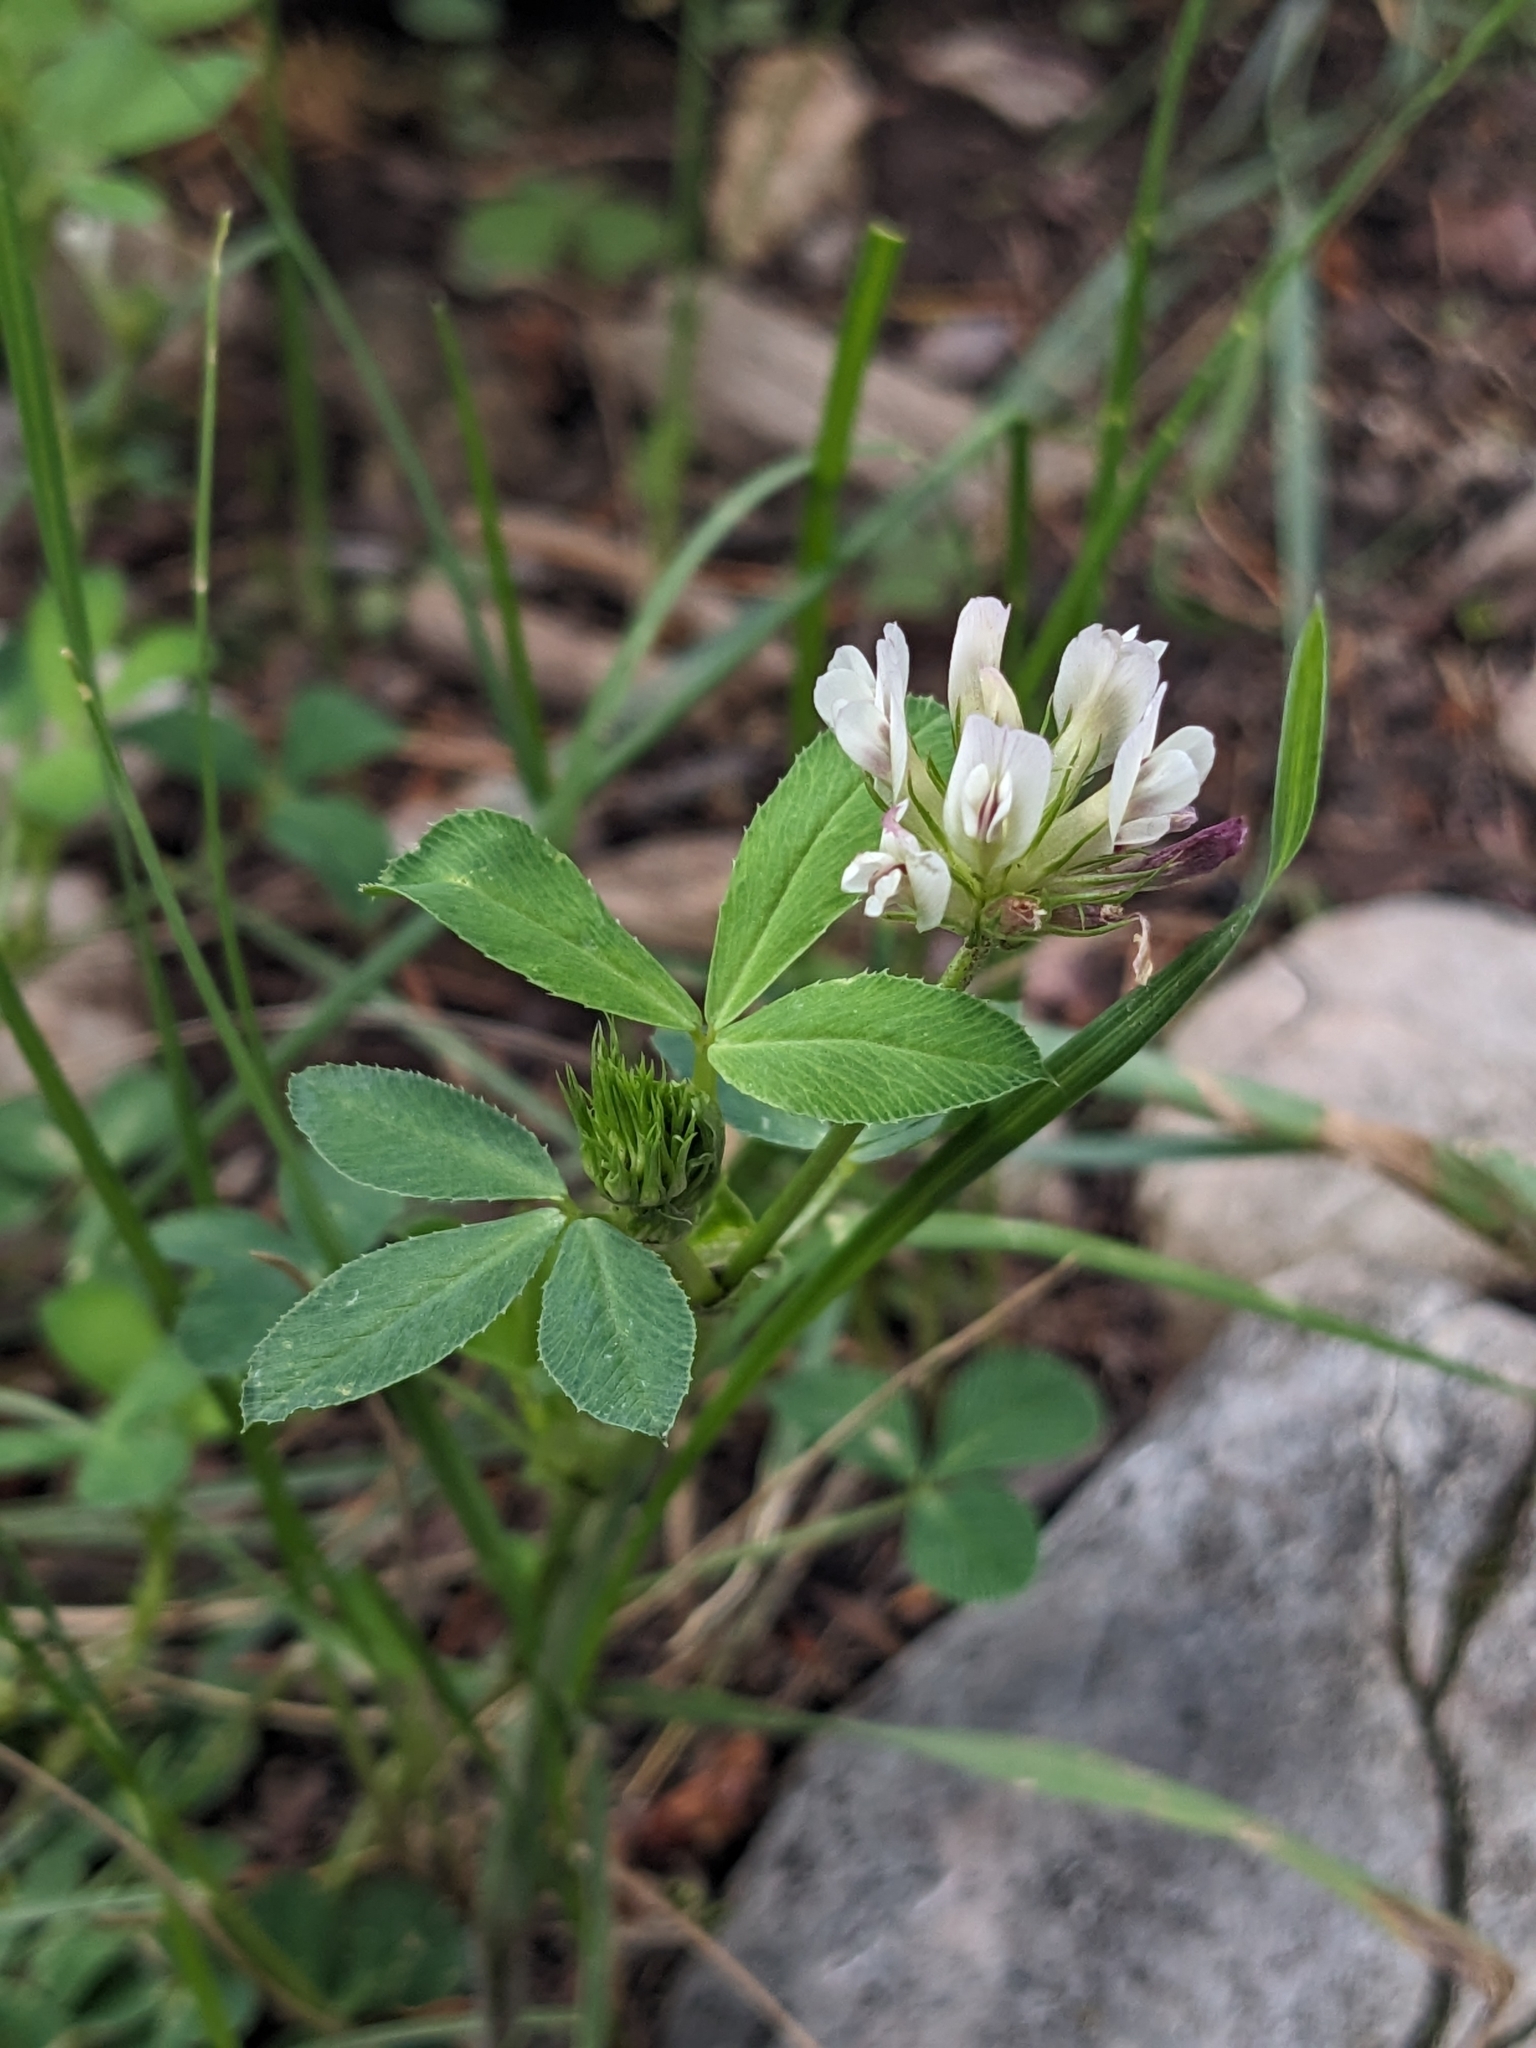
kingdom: Plantae
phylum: Tracheophyta
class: Magnoliopsida
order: Fabales
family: Fabaceae
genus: Trifolium
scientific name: Trifolium wormskioldii
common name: Springbank clover
